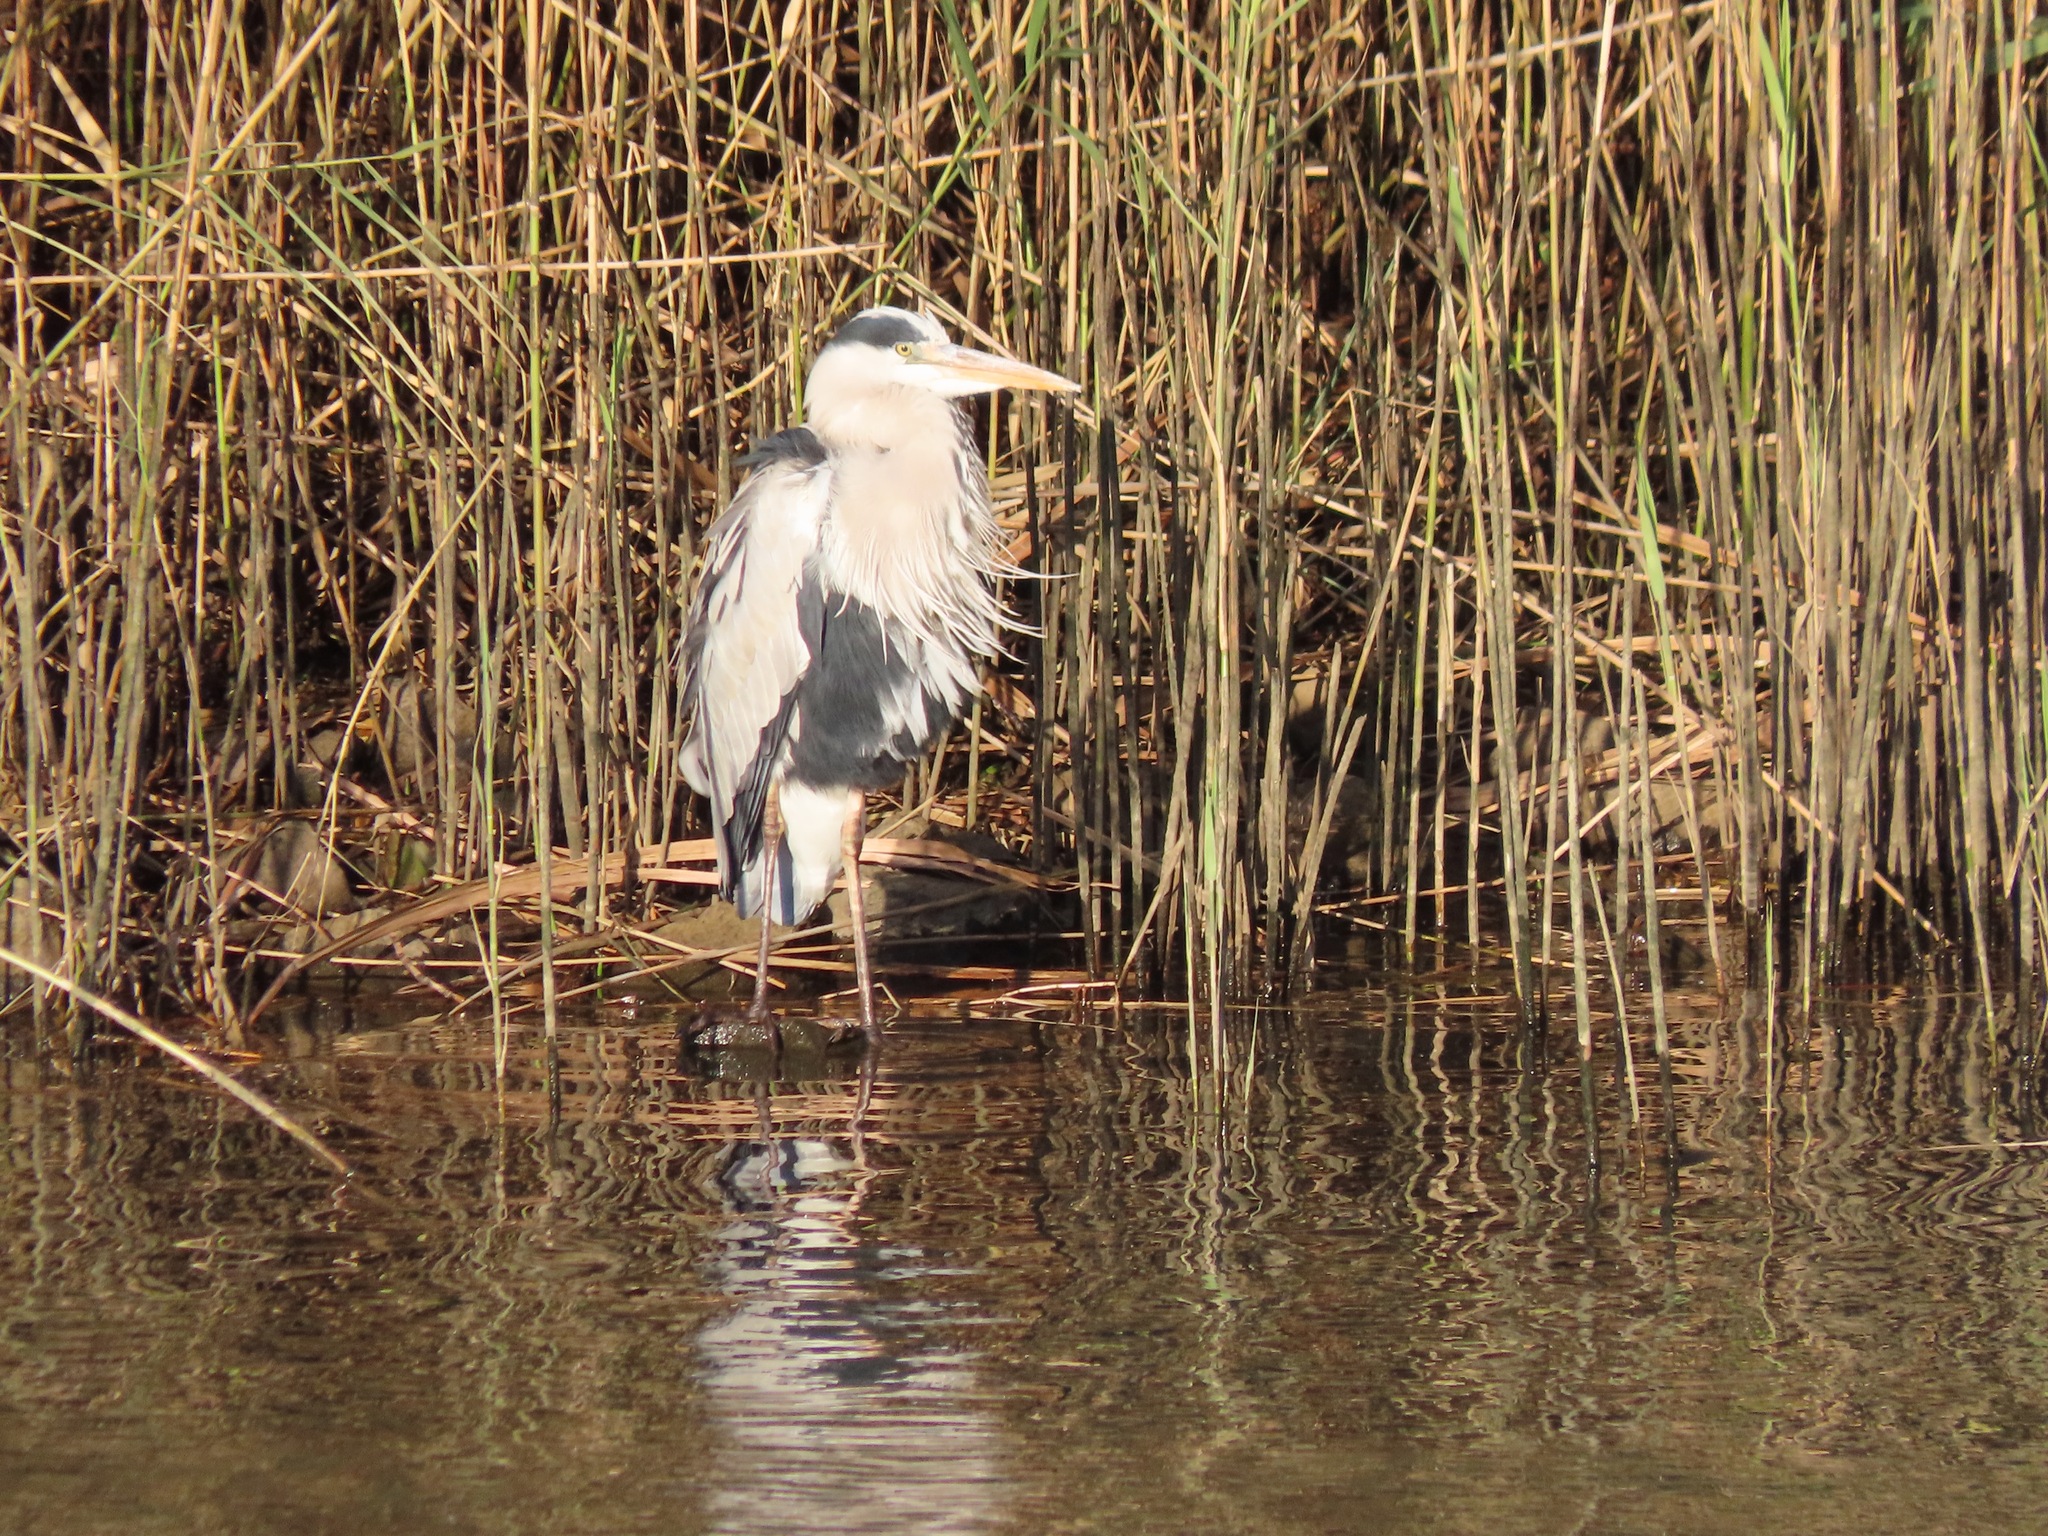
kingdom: Animalia
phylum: Chordata
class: Aves
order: Pelecaniformes
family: Ardeidae
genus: Ardea
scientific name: Ardea cinerea
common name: Grey heron
